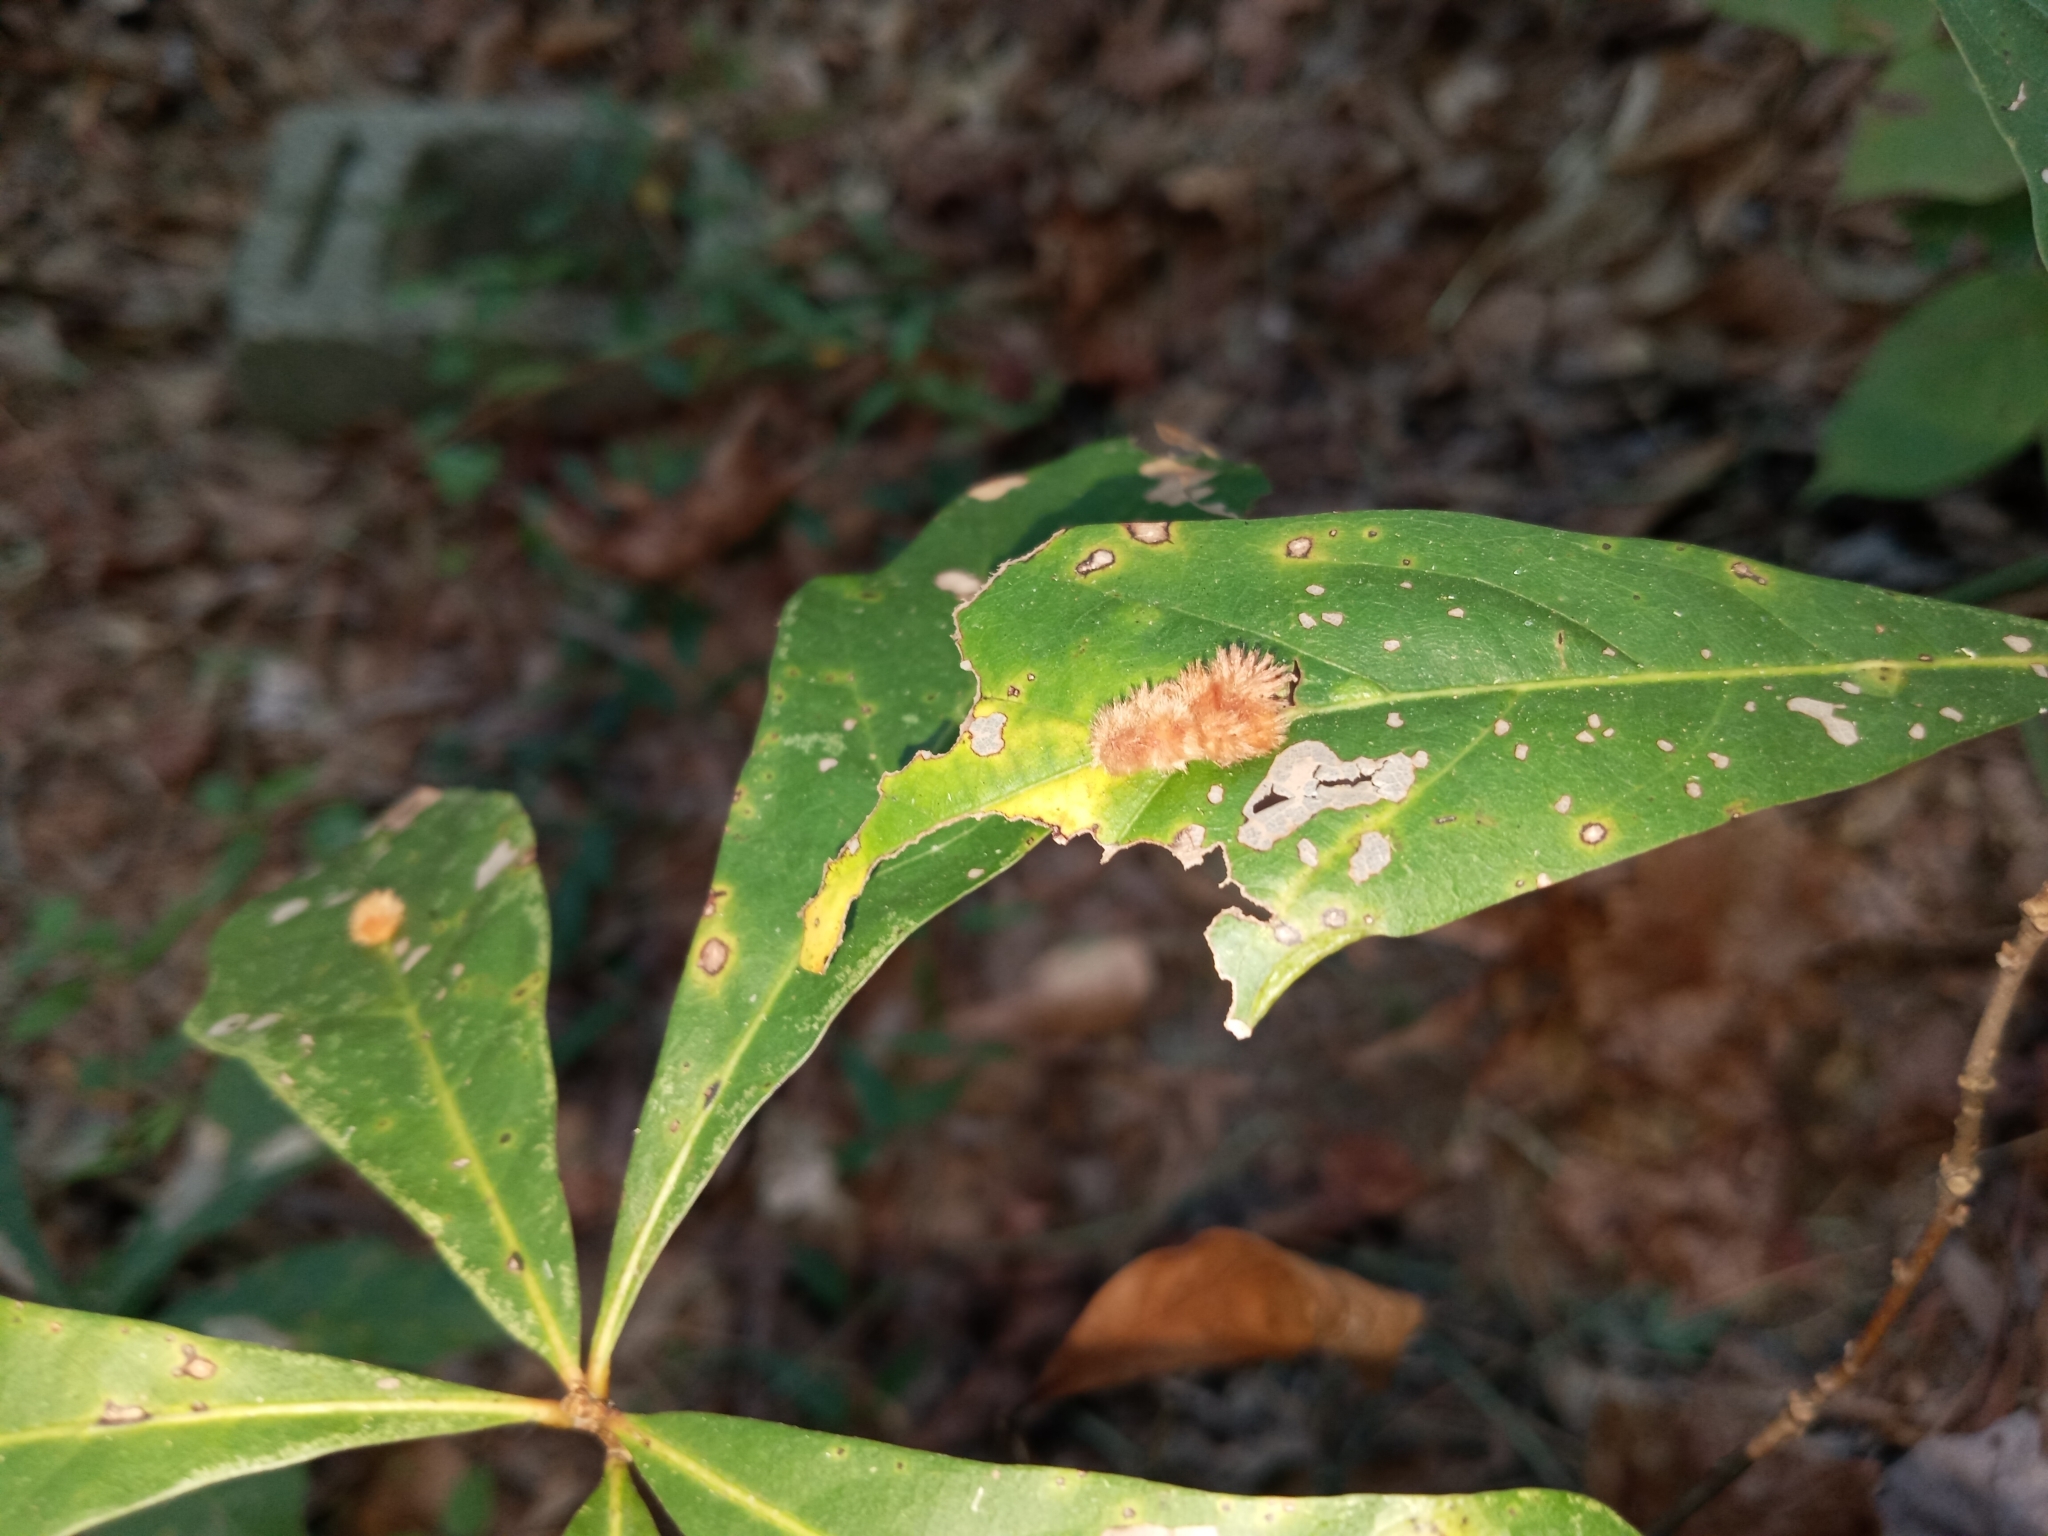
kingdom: Animalia
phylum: Arthropoda
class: Insecta
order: Hymenoptera
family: Cynipidae
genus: Callirhytis
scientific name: Callirhytis
